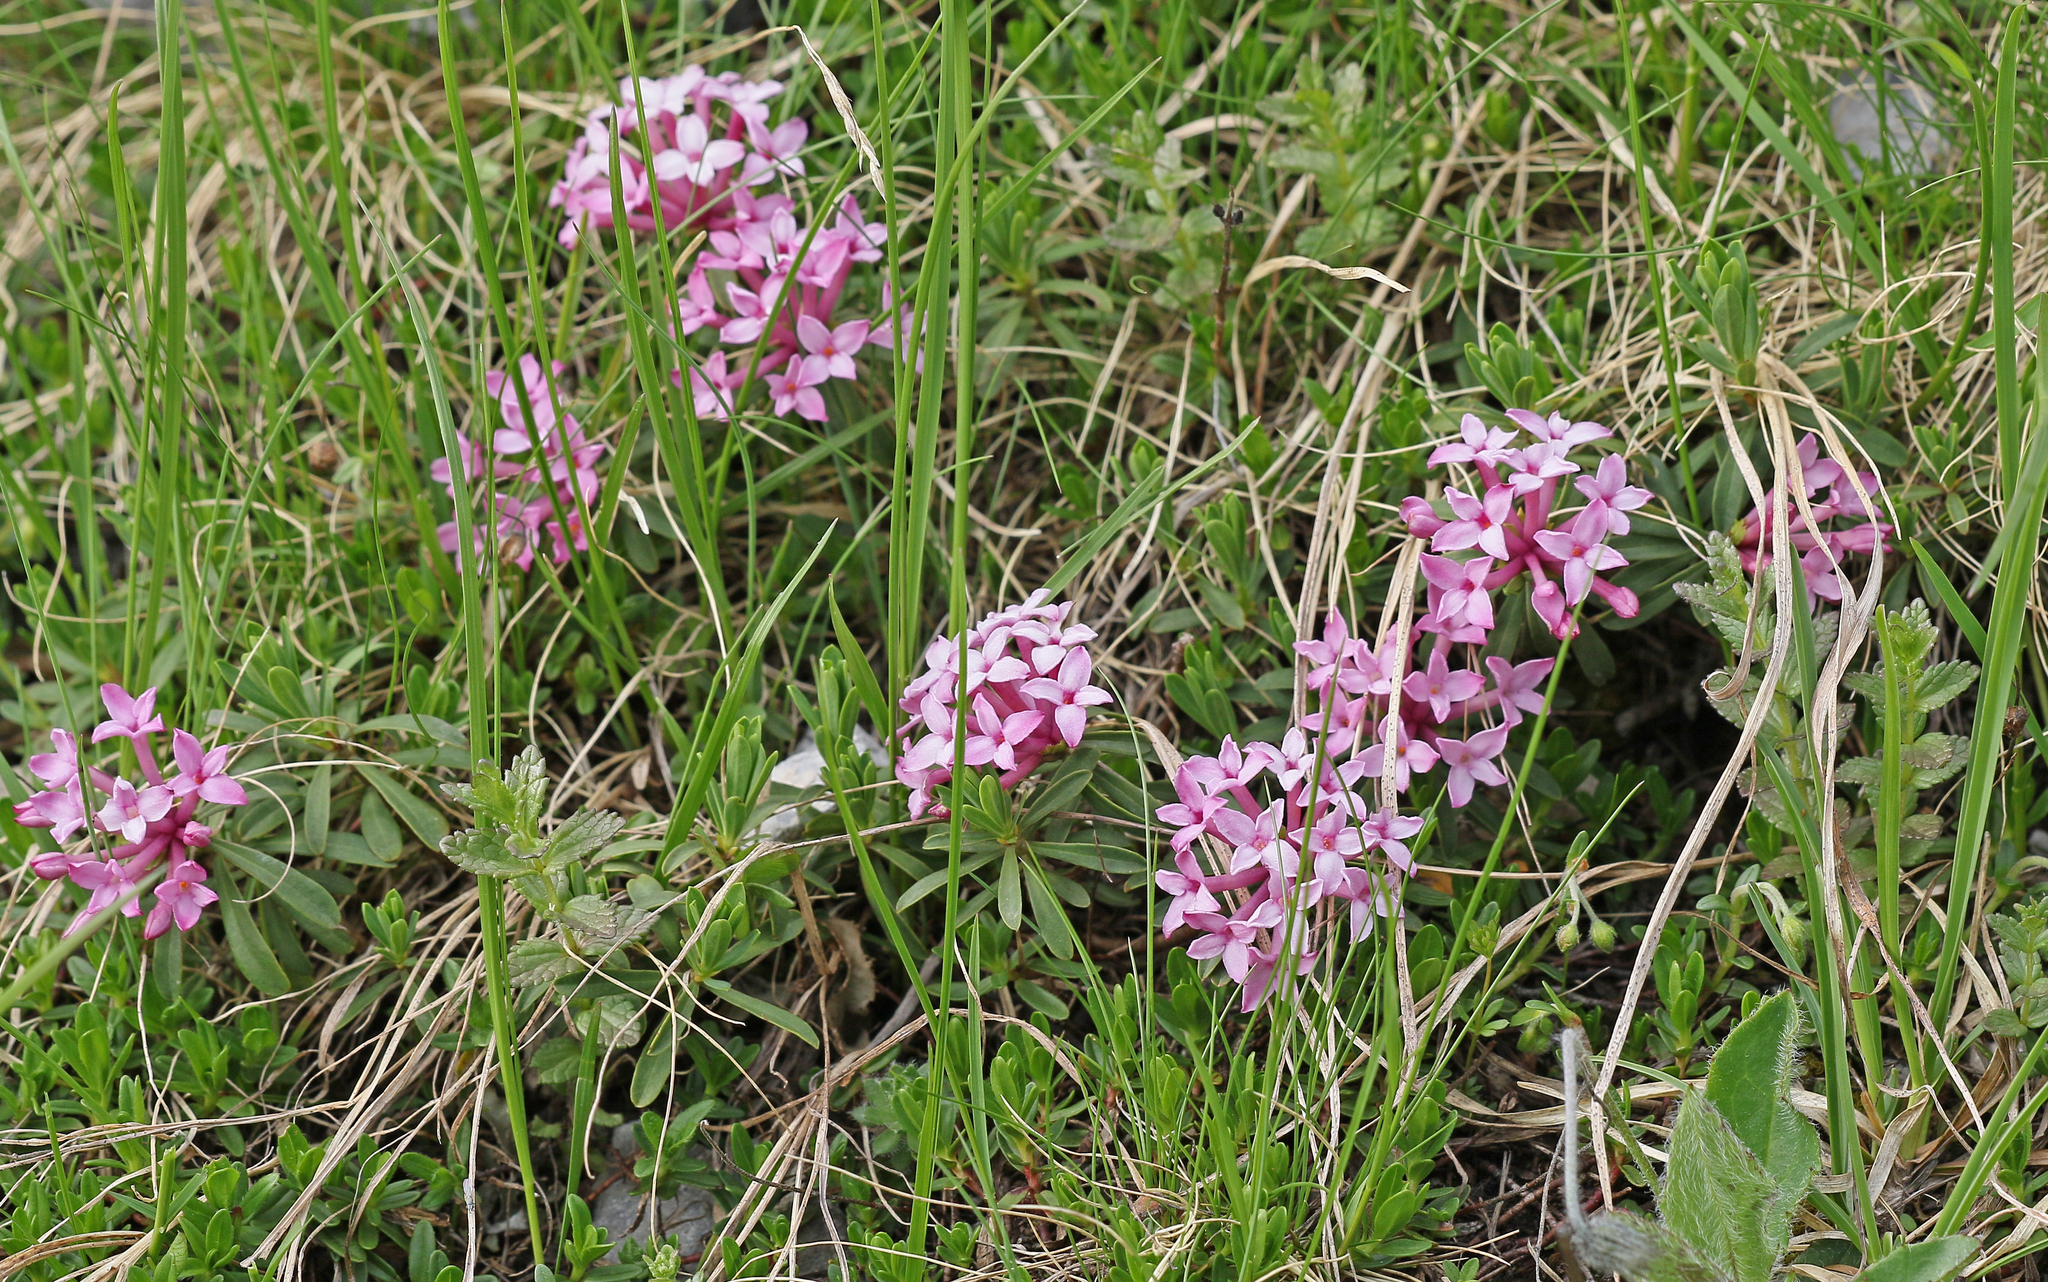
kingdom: Plantae
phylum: Tracheophyta
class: Magnoliopsida
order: Malvales
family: Thymelaeaceae
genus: Daphne
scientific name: Daphne striata
